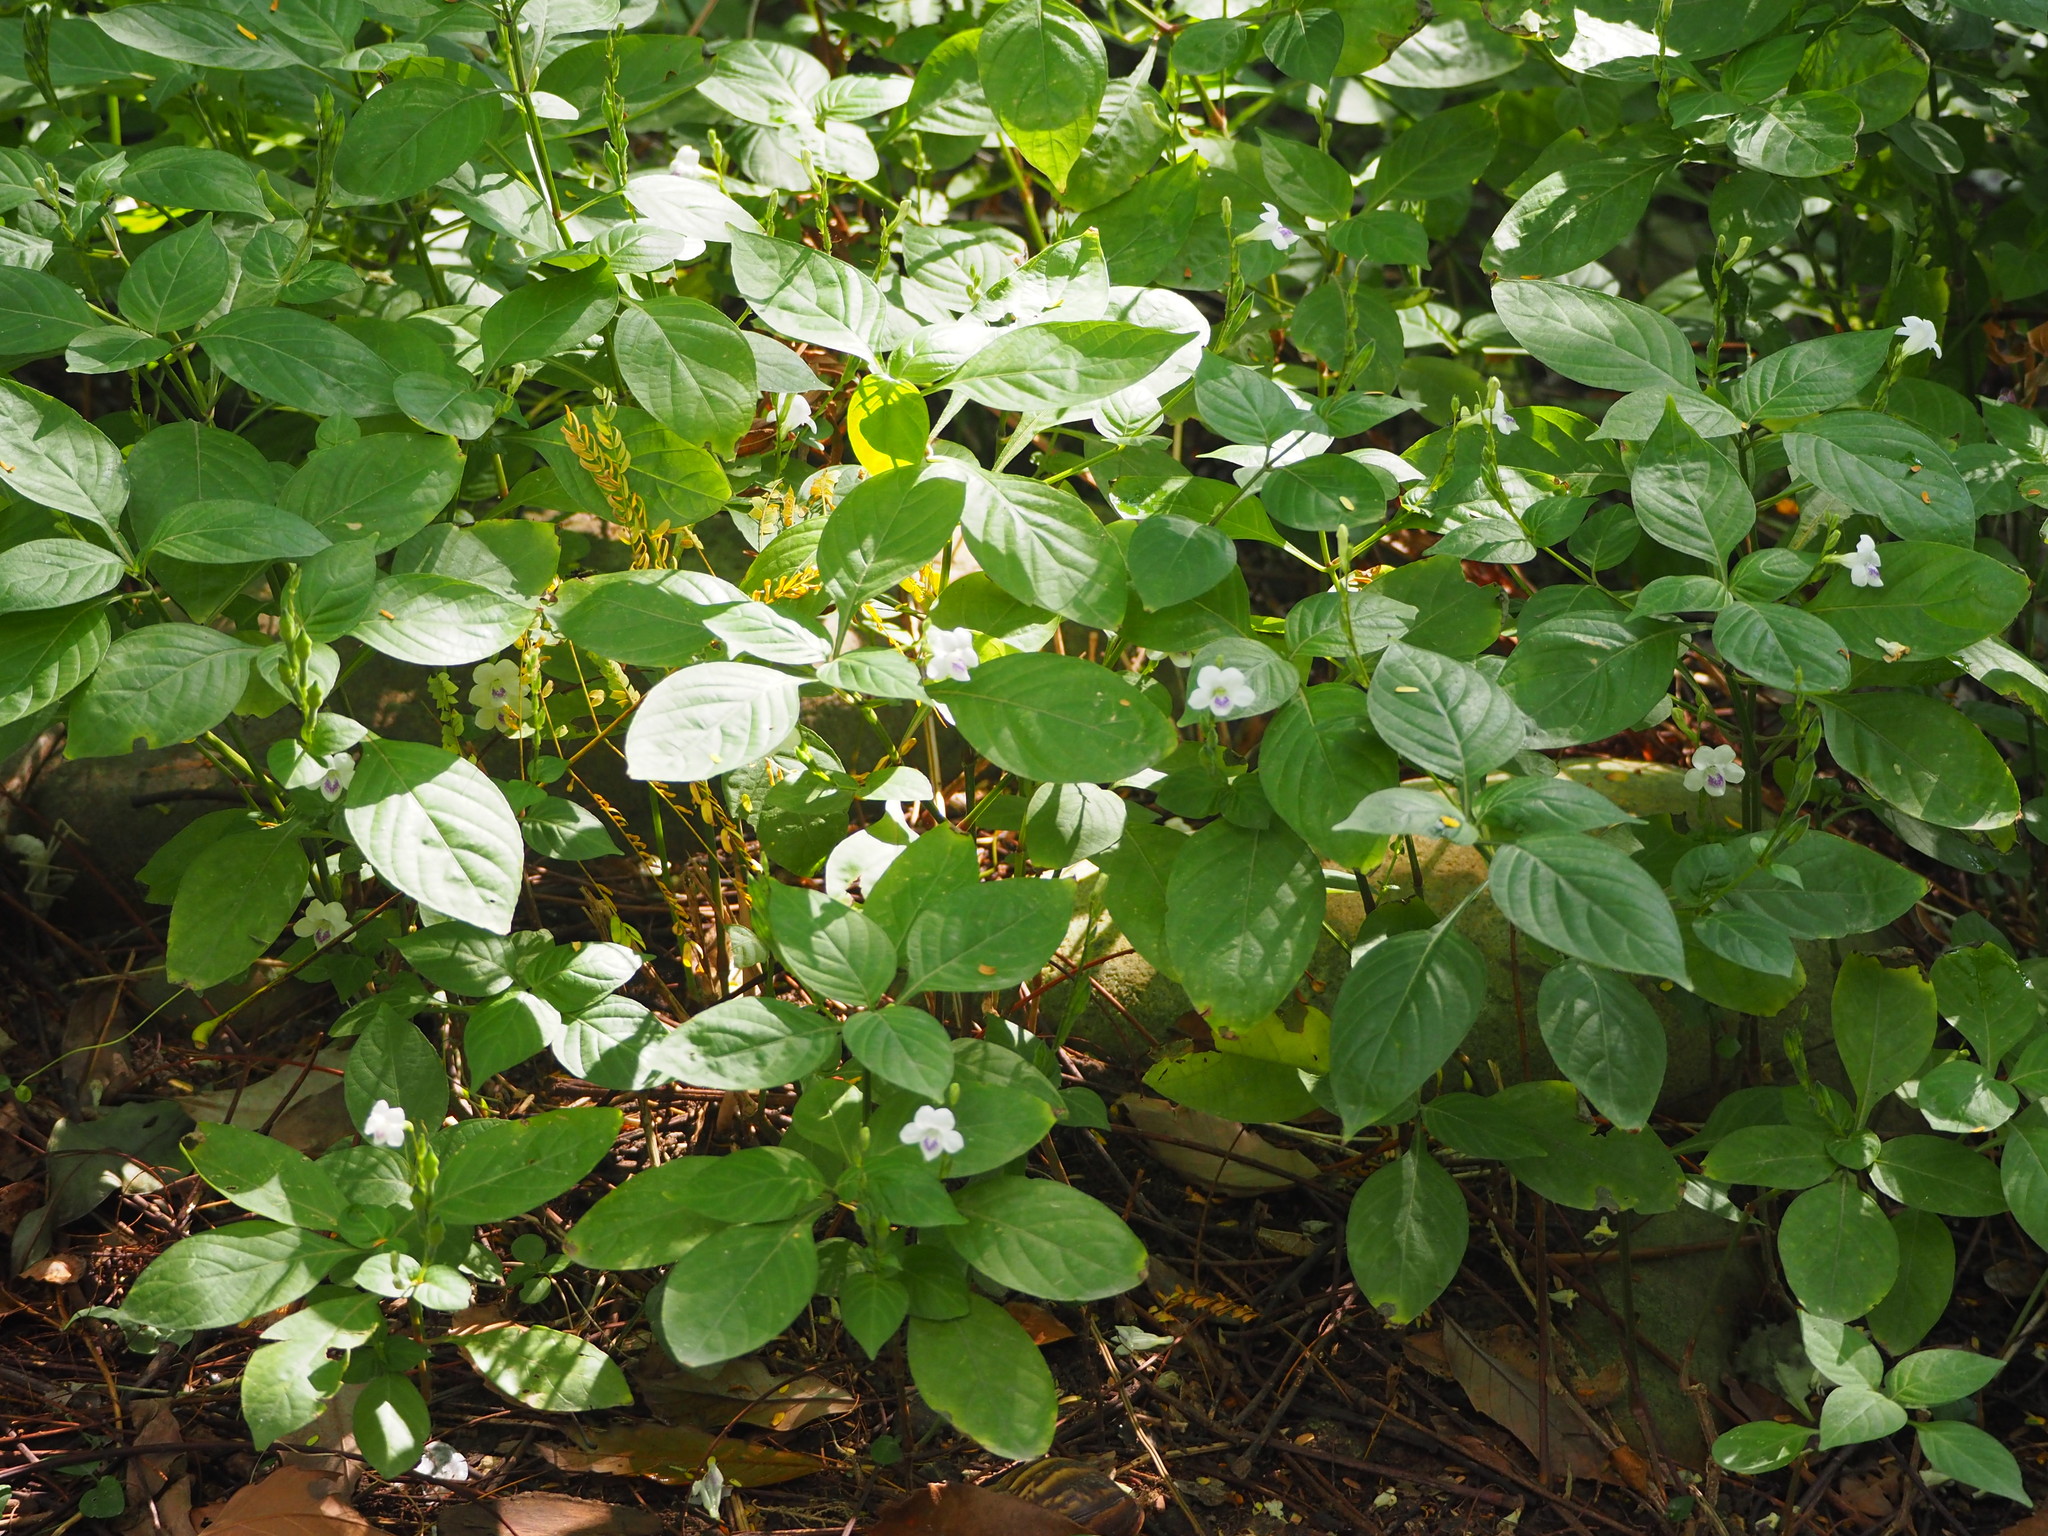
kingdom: Plantae
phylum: Tracheophyta
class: Magnoliopsida
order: Lamiales
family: Acanthaceae
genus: Asystasia
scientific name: Asystasia intrusa
